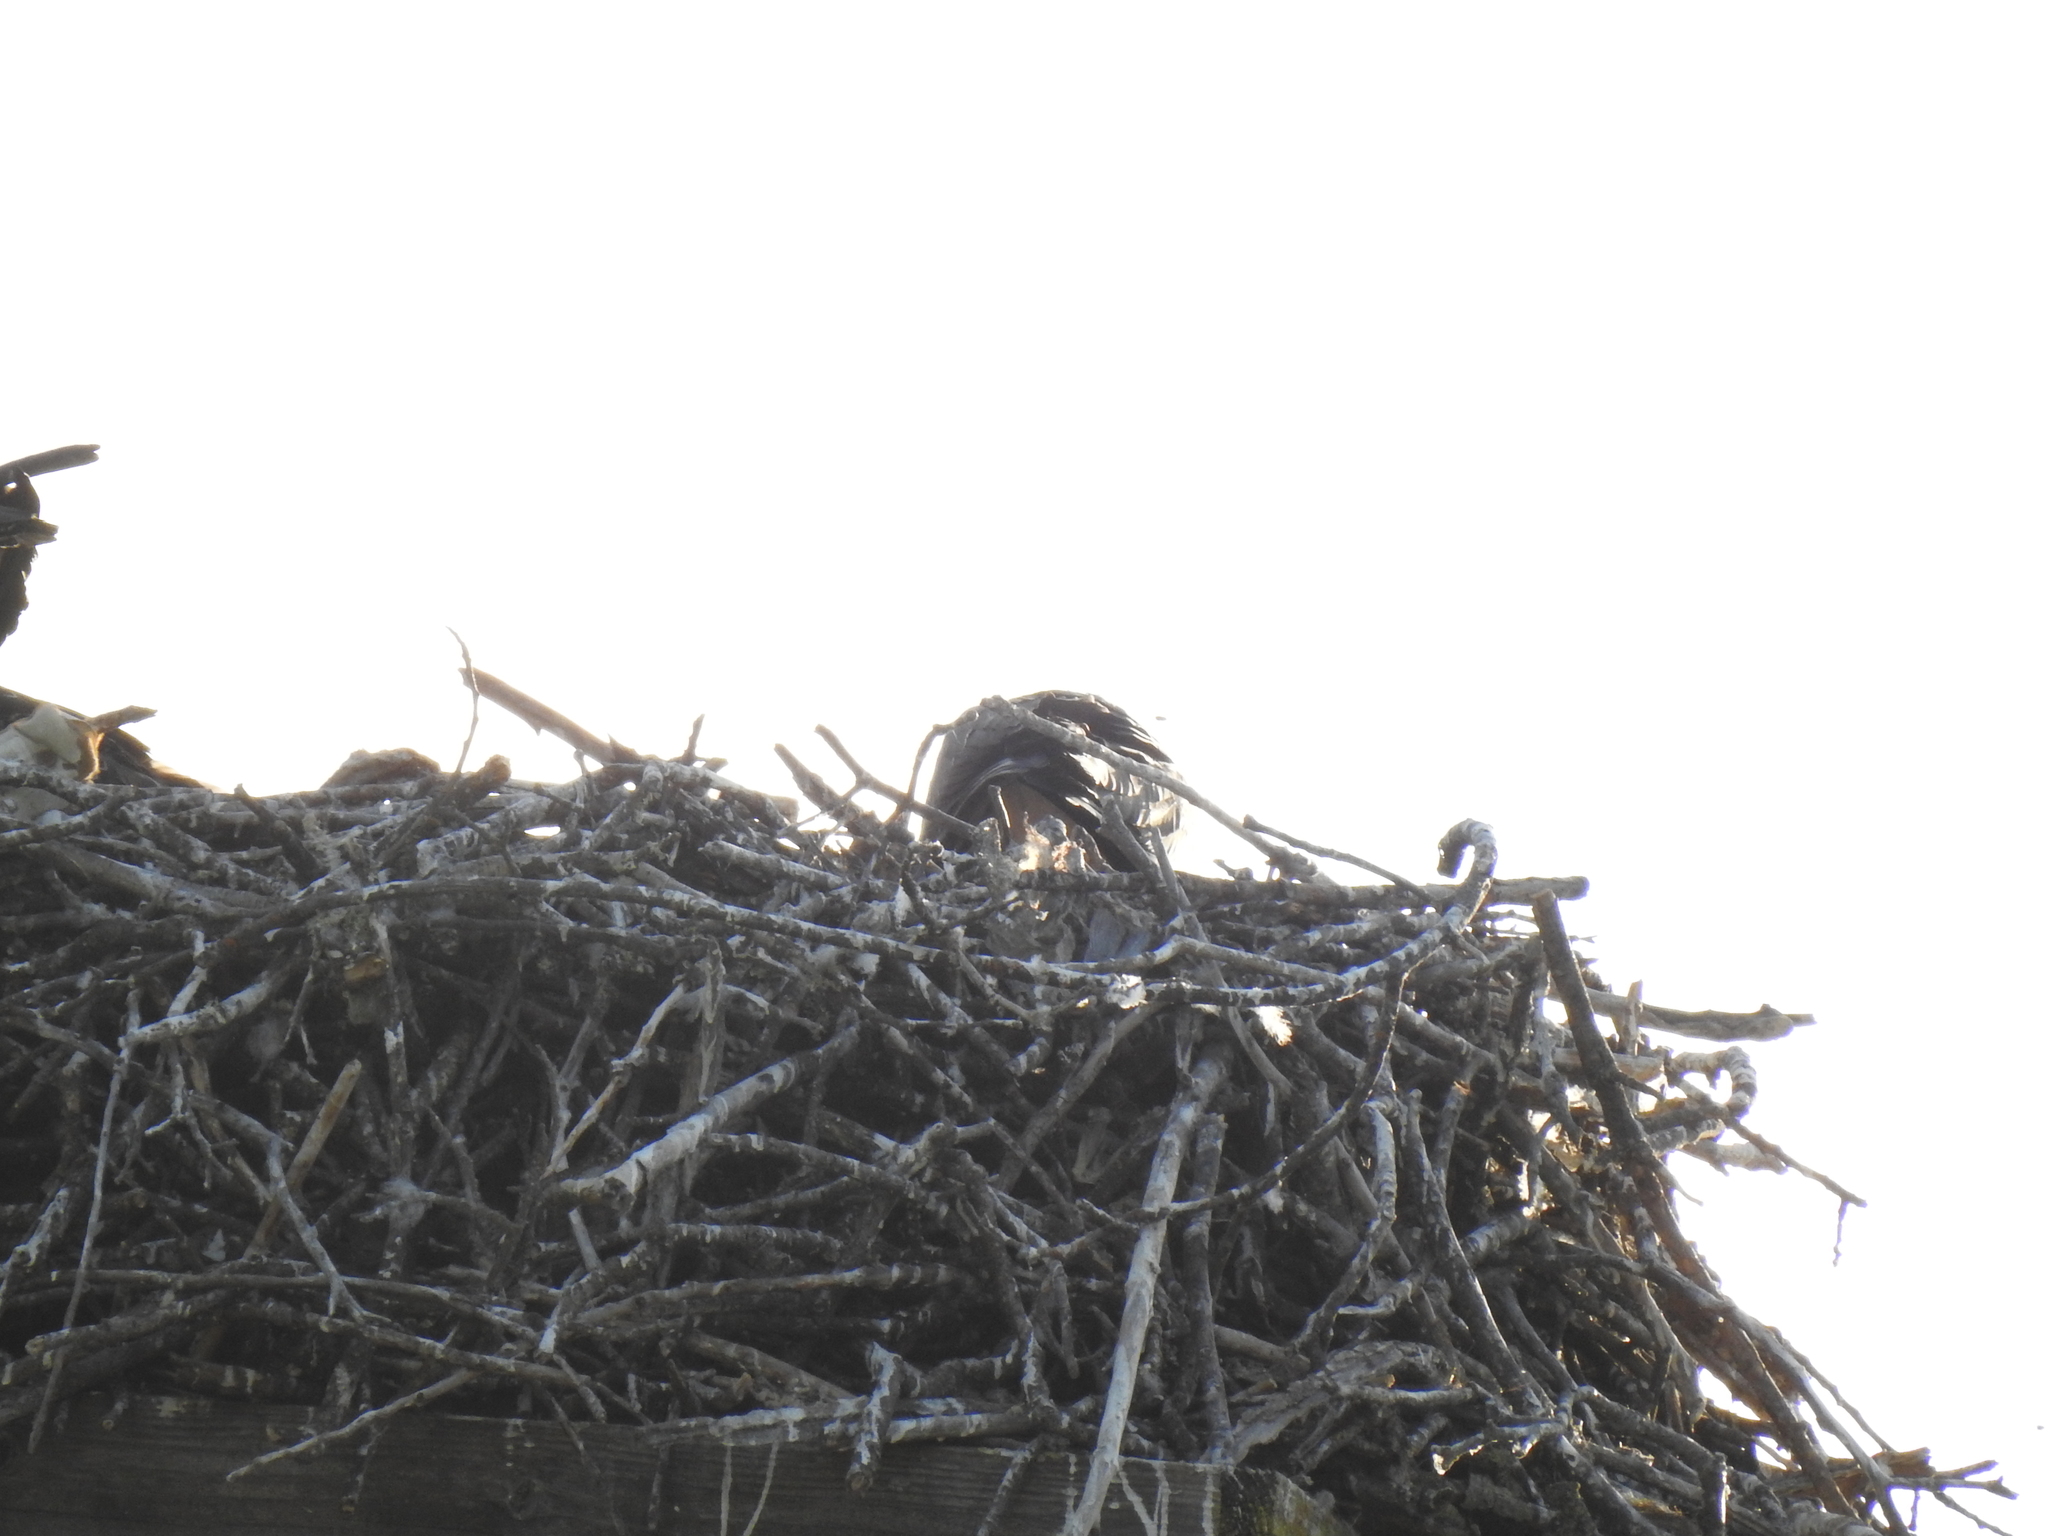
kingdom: Animalia
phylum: Chordata
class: Aves
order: Accipitriformes
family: Pandionidae
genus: Pandion
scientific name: Pandion haliaetus
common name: Osprey
